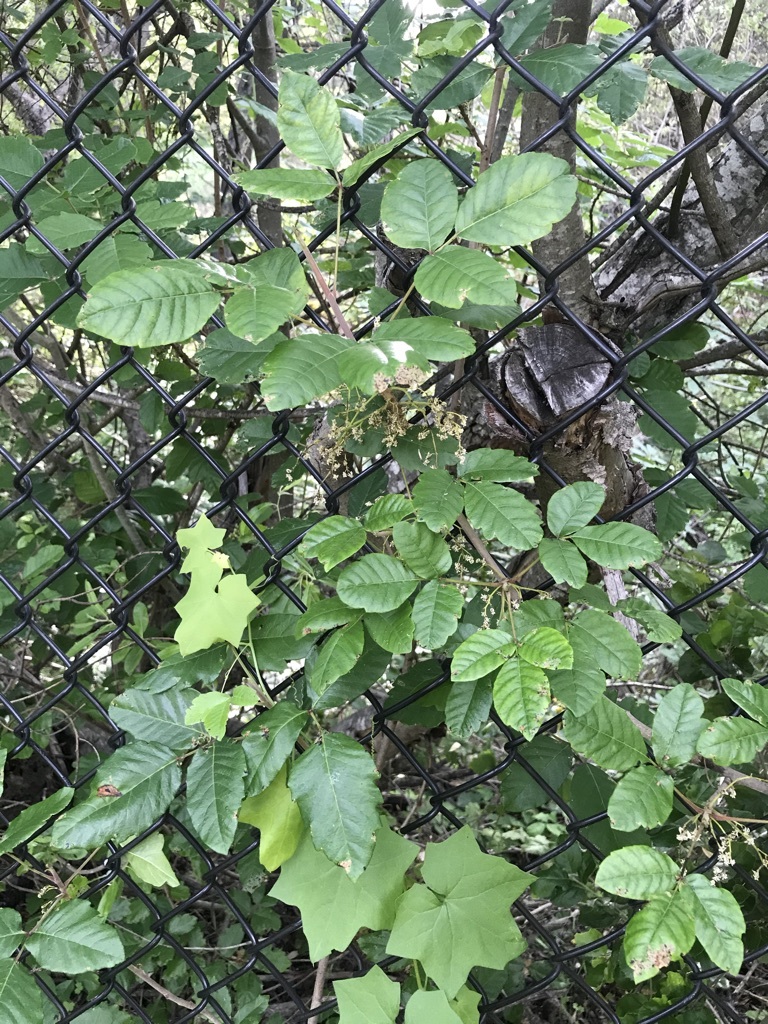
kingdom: Plantae
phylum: Tracheophyta
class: Magnoliopsida
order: Sapindales
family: Anacardiaceae
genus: Toxicodendron
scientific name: Toxicodendron diversilobum
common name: Pacific poison-oak
